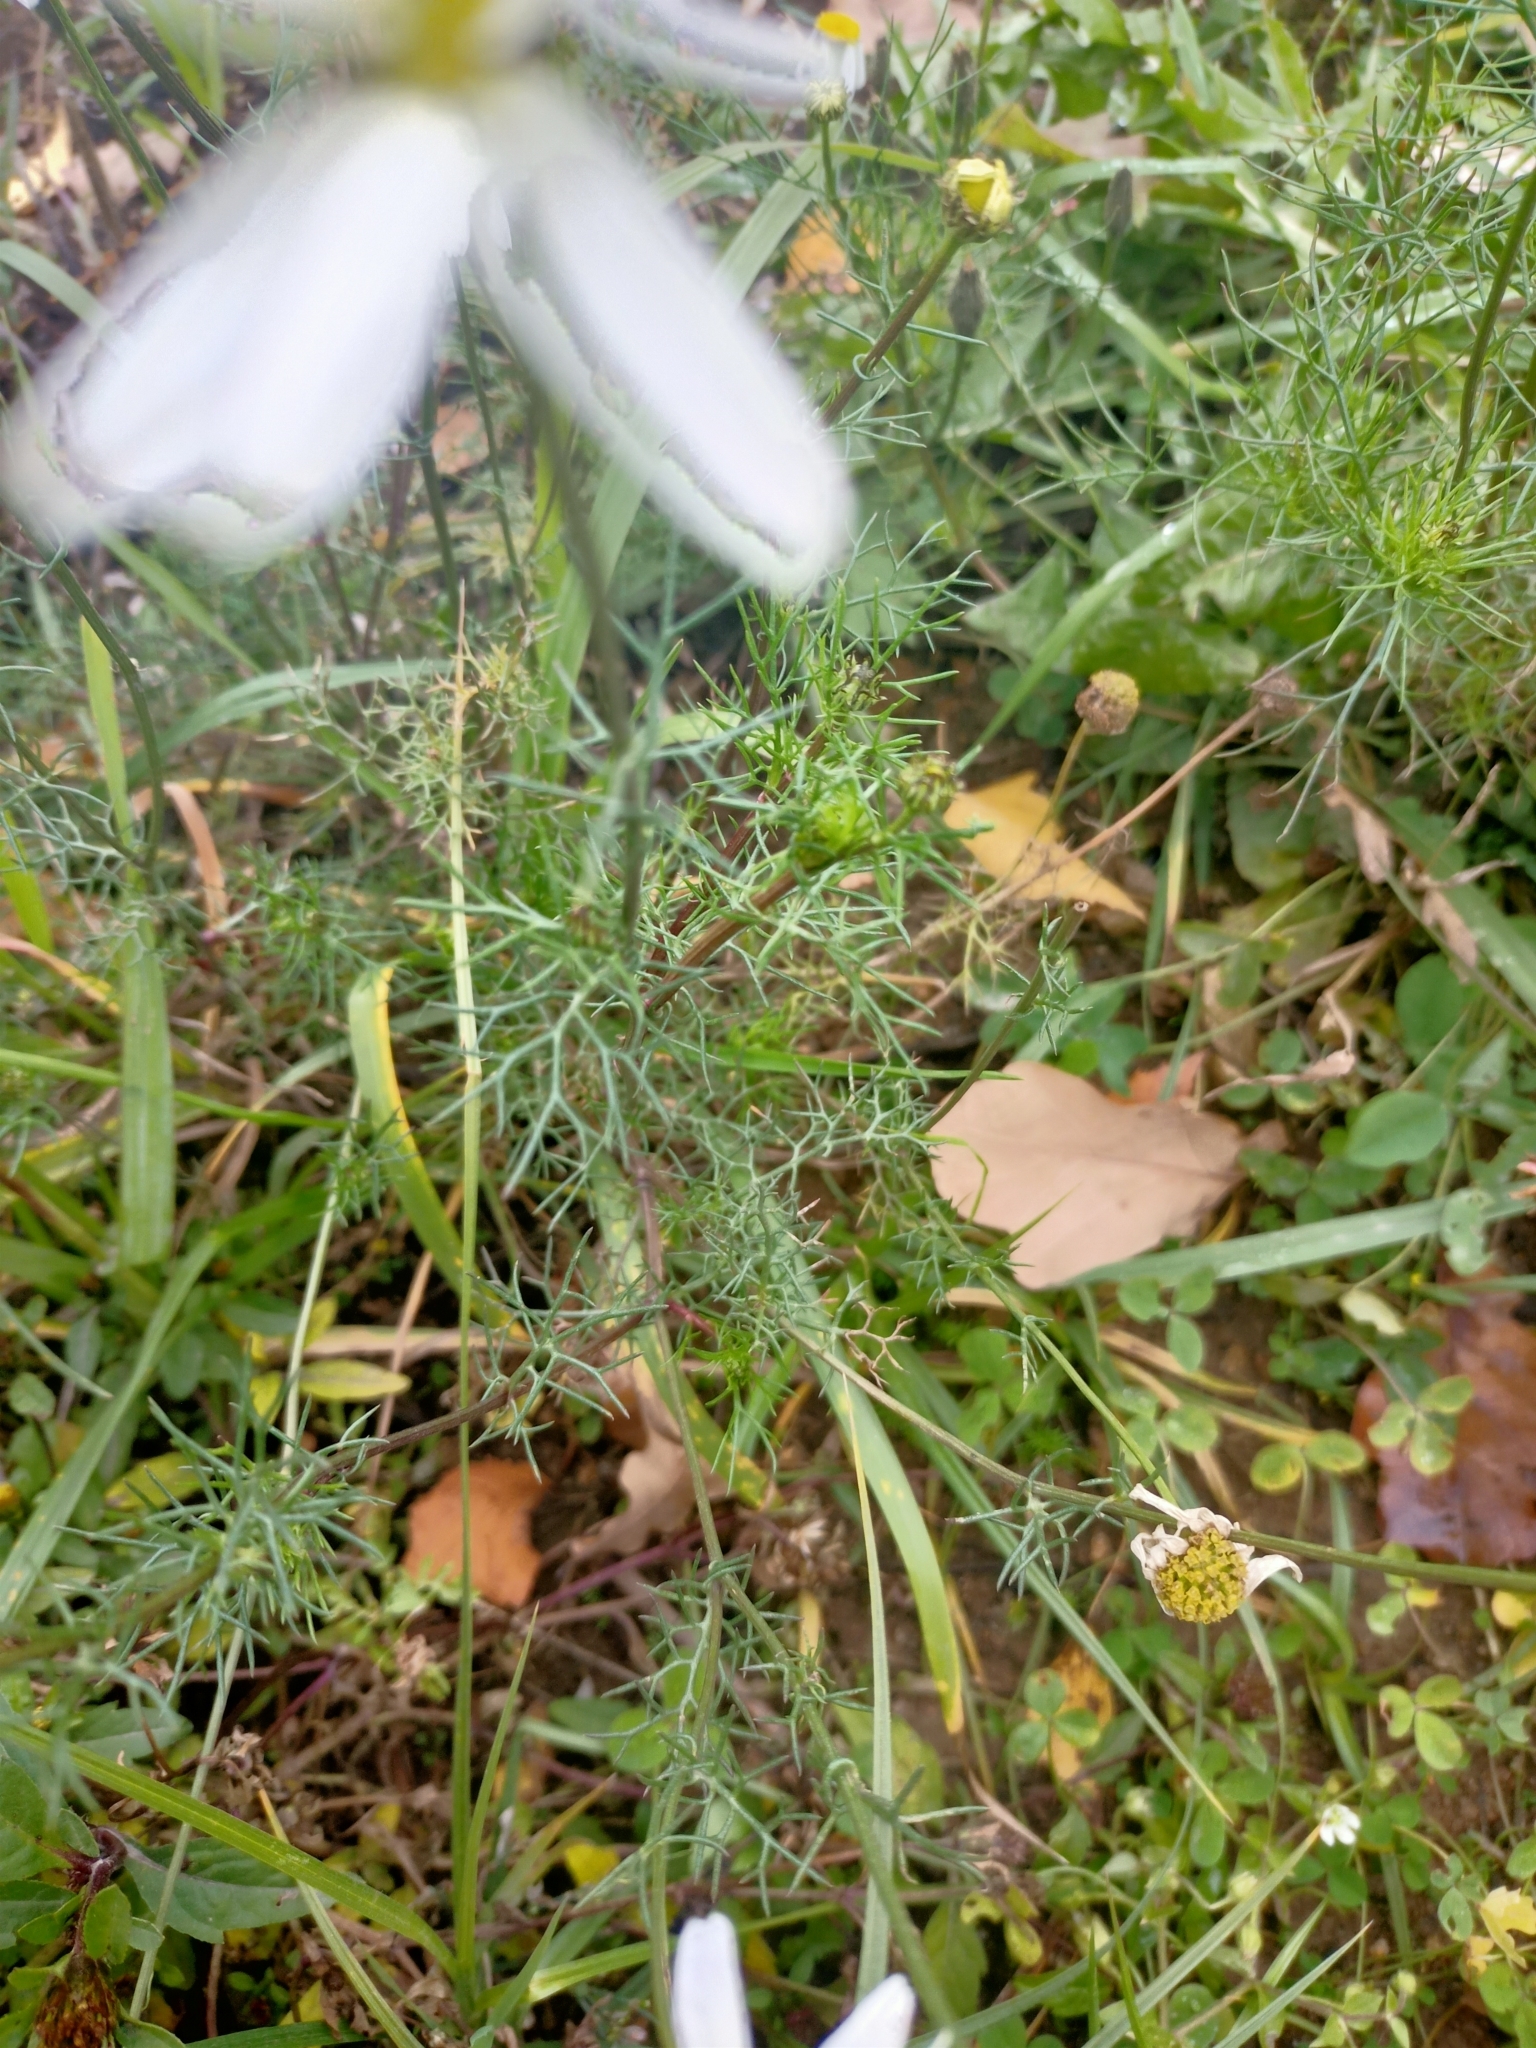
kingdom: Plantae
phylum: Tracheophyta
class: Magnoliopsida
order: Asterales
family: Asteraceae
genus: Tripleurospermum
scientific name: Tripleurospermum inodorum
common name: Scentless mayweed
